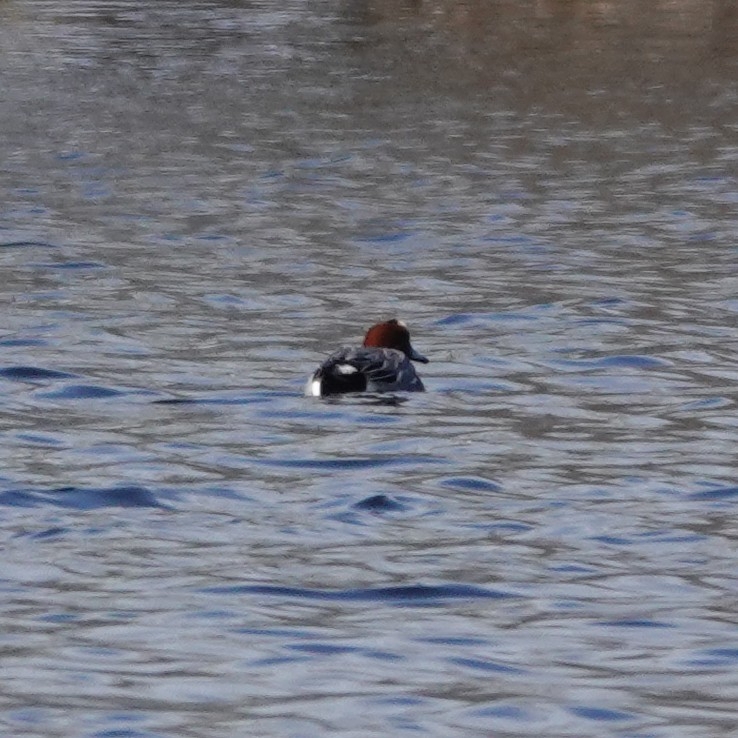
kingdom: Animalia
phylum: Chordata
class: Aves
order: Anseriformes
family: Anatidae
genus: Mareca
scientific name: Mareca penelope
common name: Eurasian wigeon
